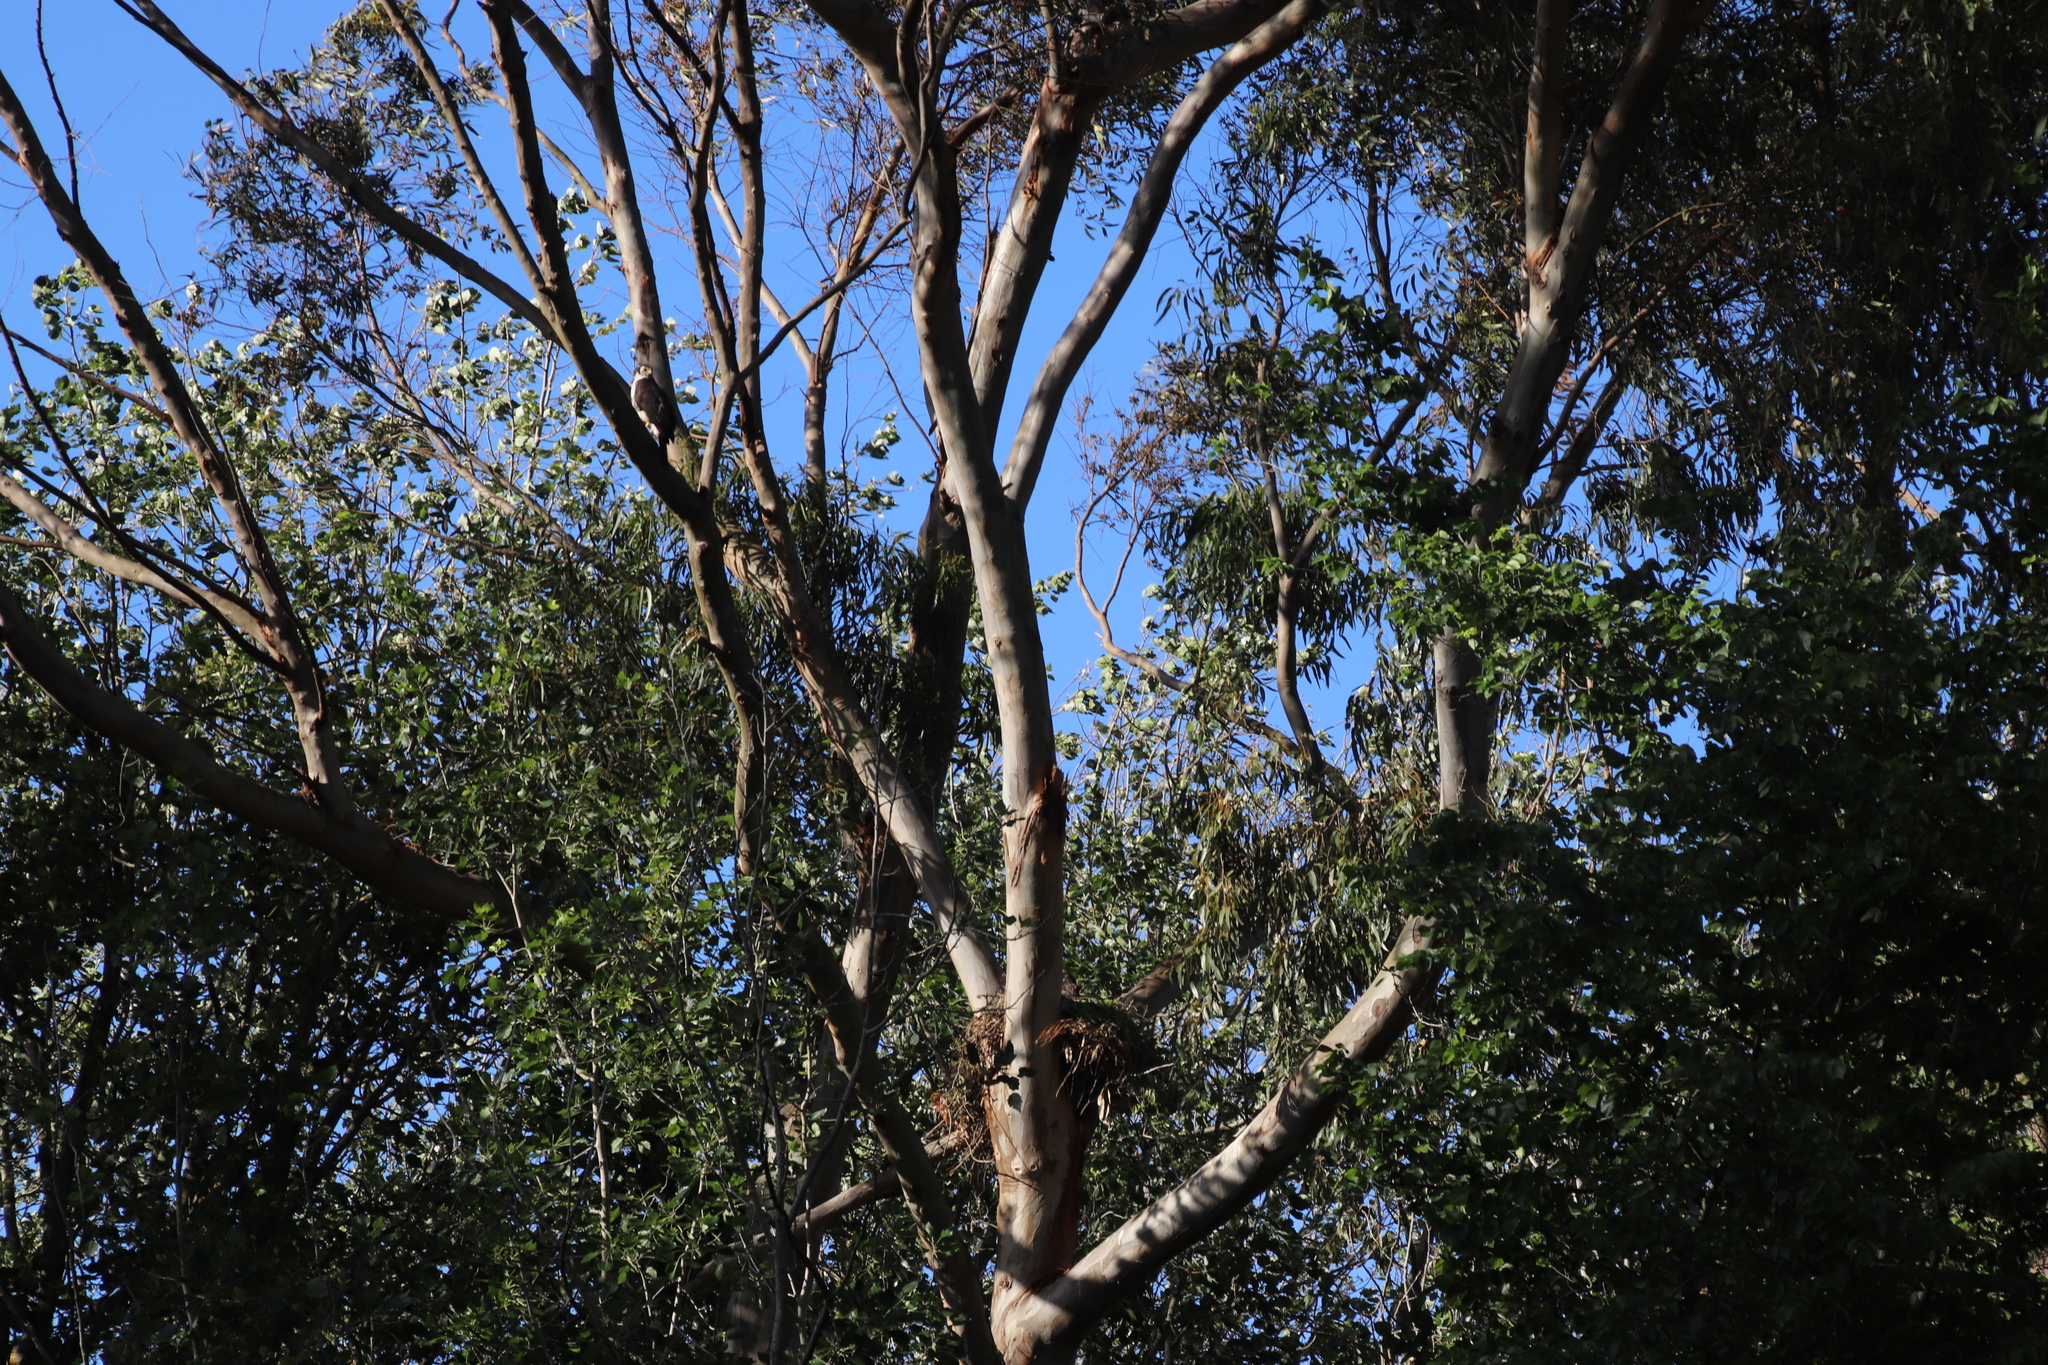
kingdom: Animalia
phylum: Chordata
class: Aves
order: Accipitriformes
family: Accipitridae
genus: Accipiter
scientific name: Accipiter melanoleucus
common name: Black sparrowhawk
